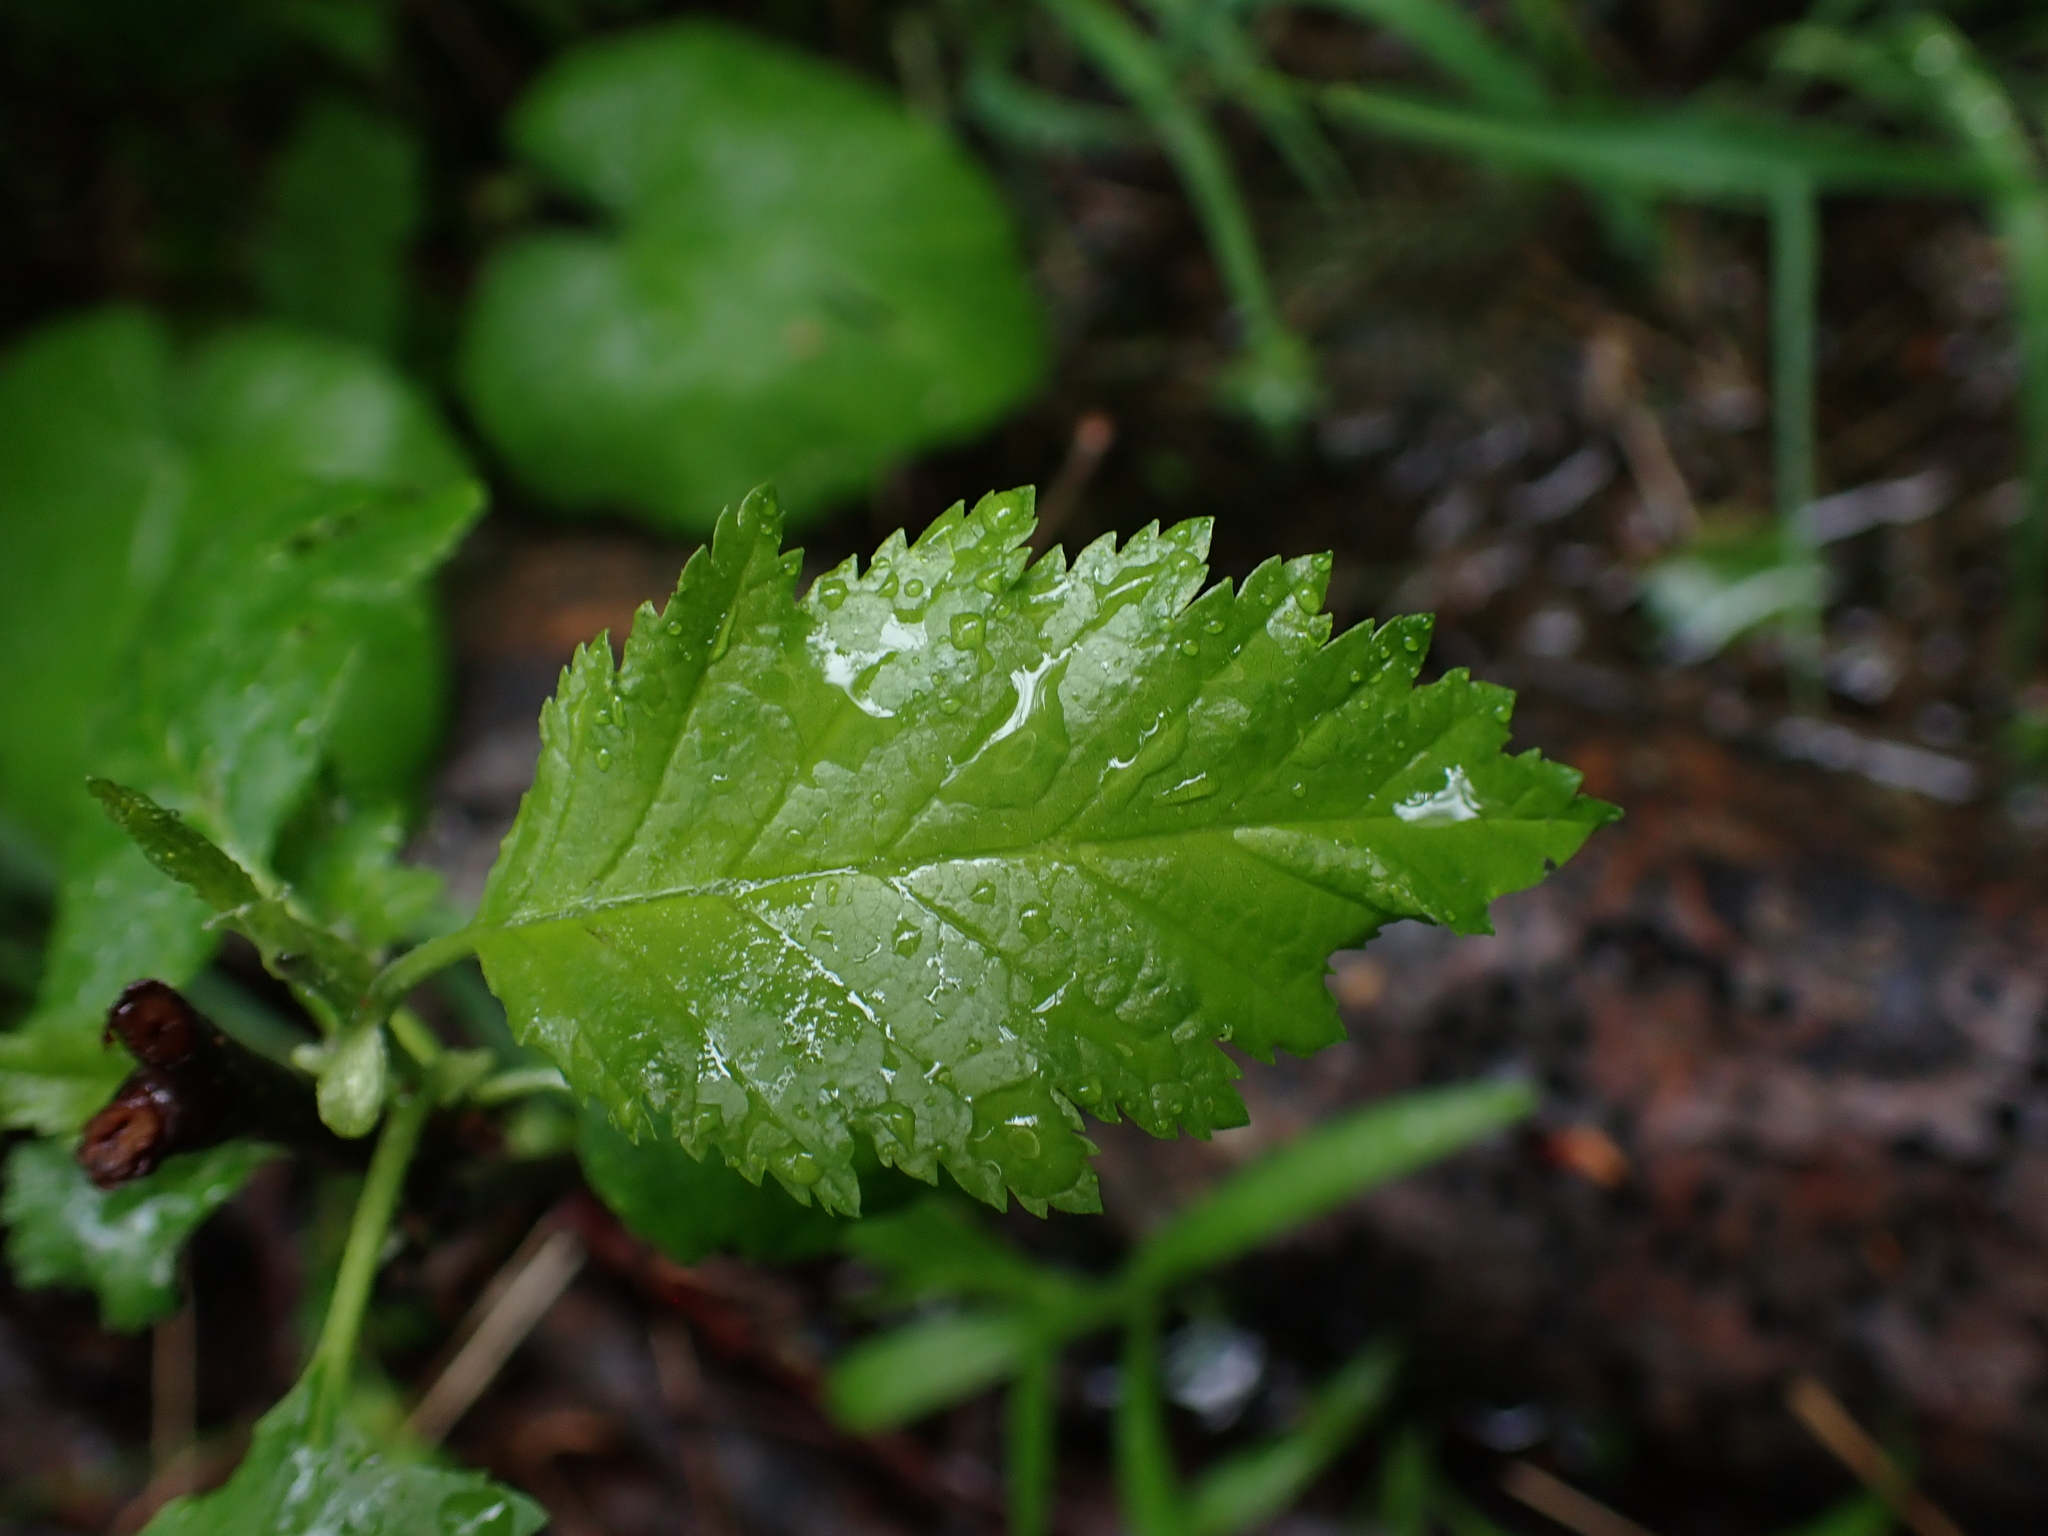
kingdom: Plantae
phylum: Tracheophyta
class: Magnoliopsida
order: Fagales
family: Betulaceae
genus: Alnus
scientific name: Alnus incana
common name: Grey alder
